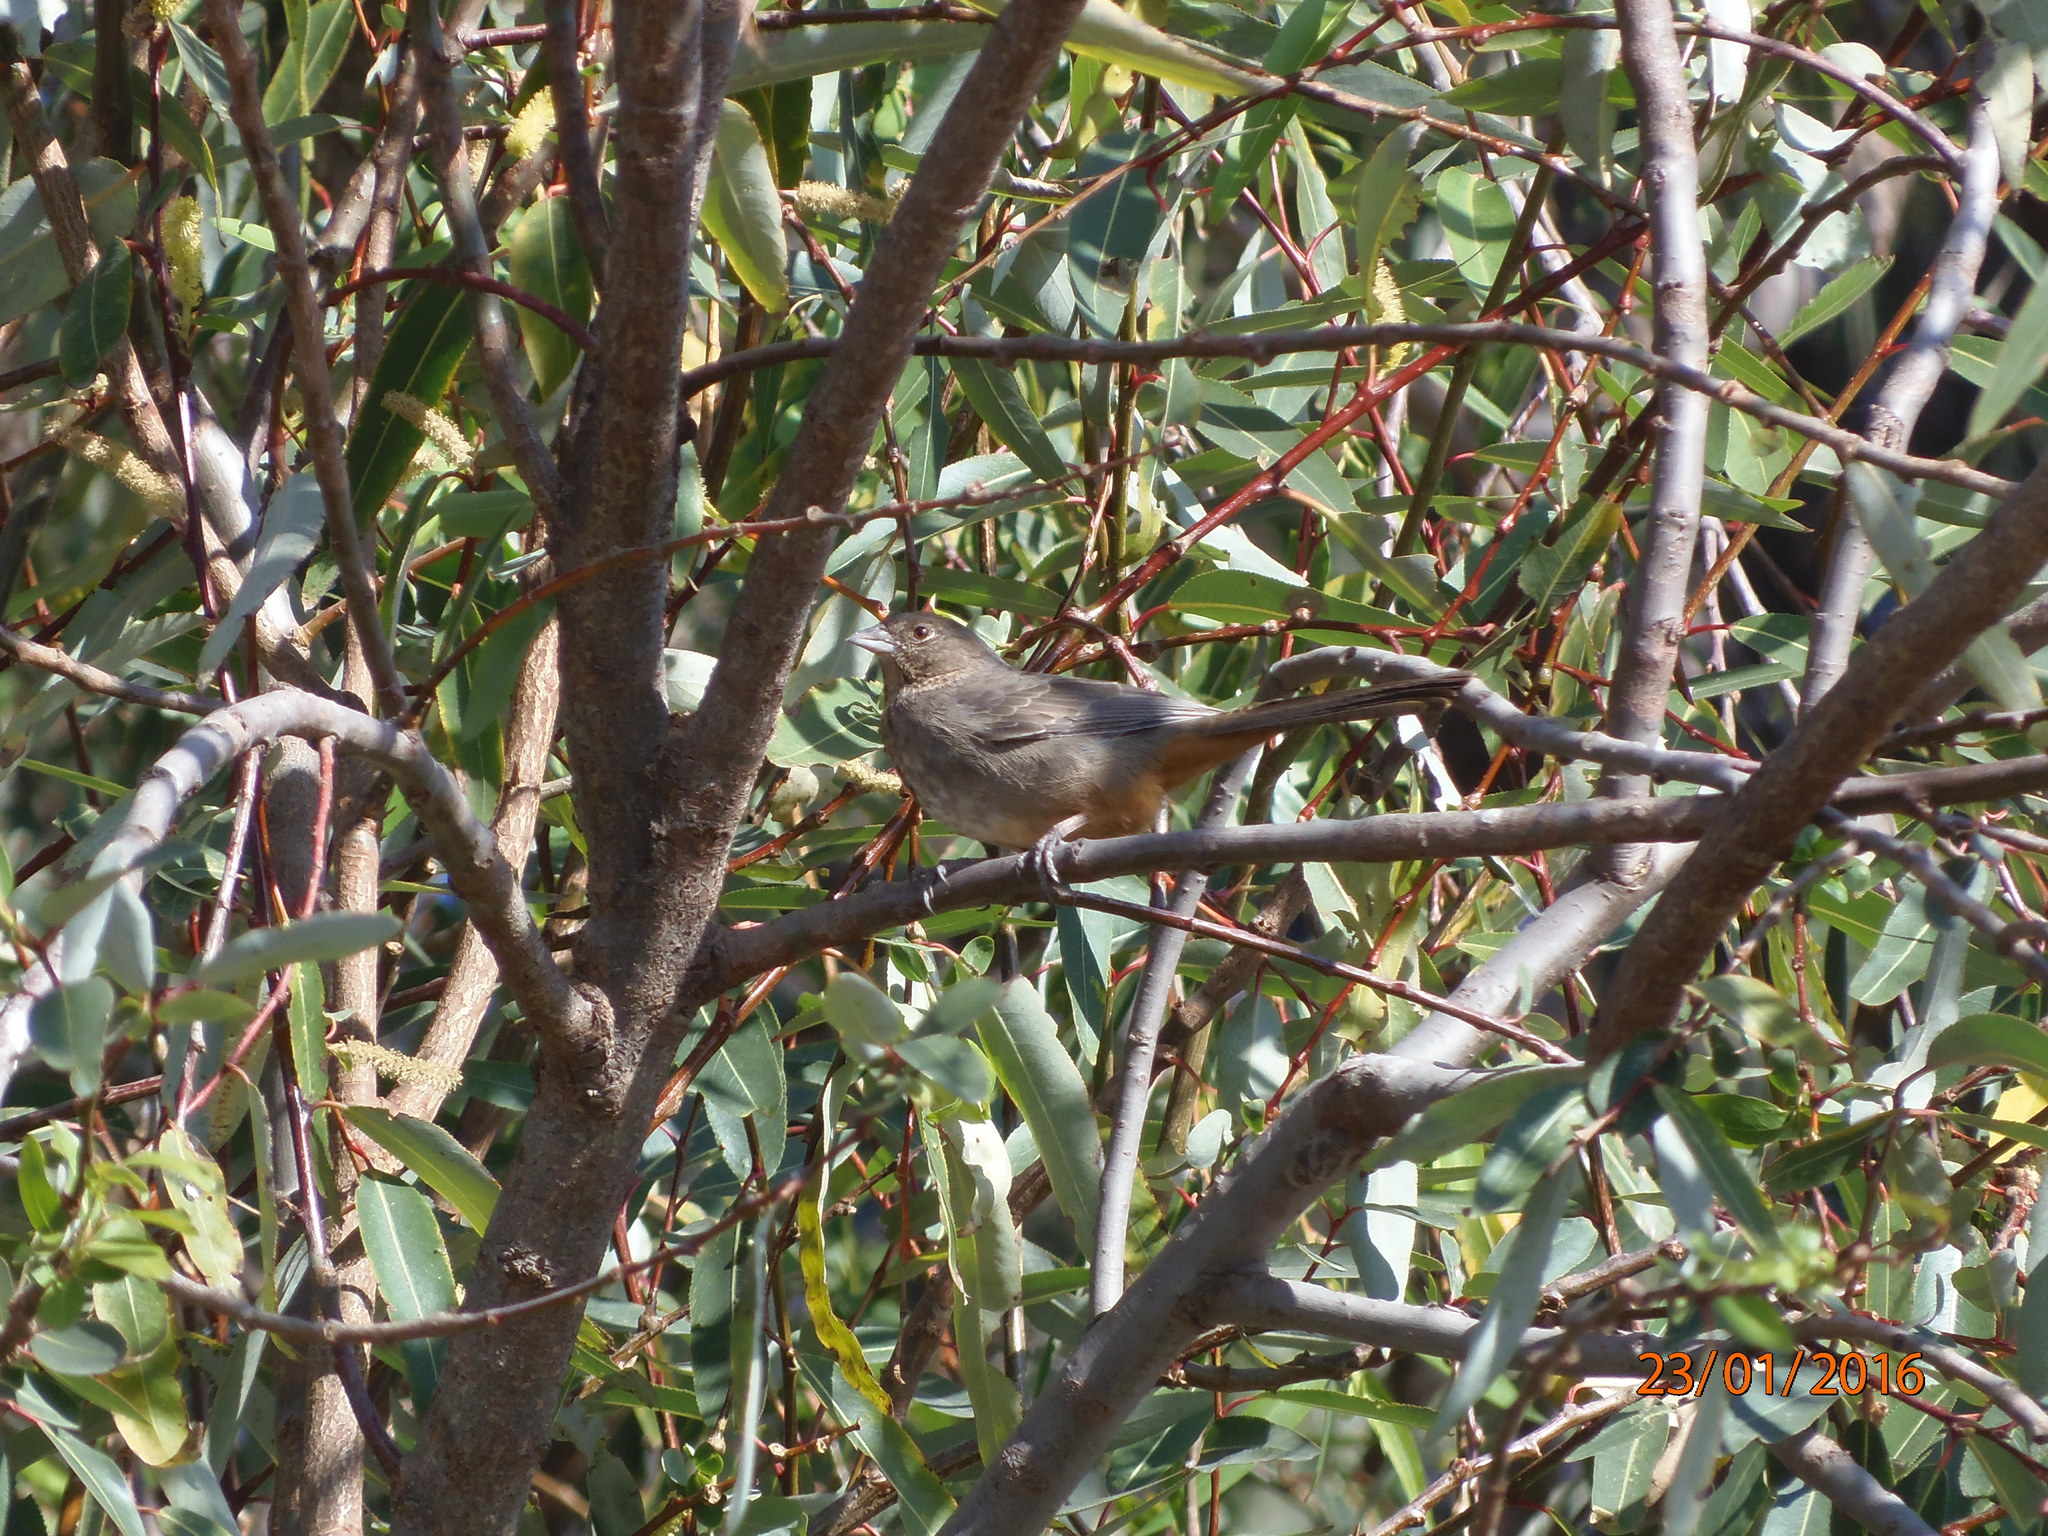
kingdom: Animalia
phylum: Chordata
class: Aves
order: Passeriformes
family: Passerellidae
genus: Melozone
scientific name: Melozone fusca
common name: Canyon towhee
